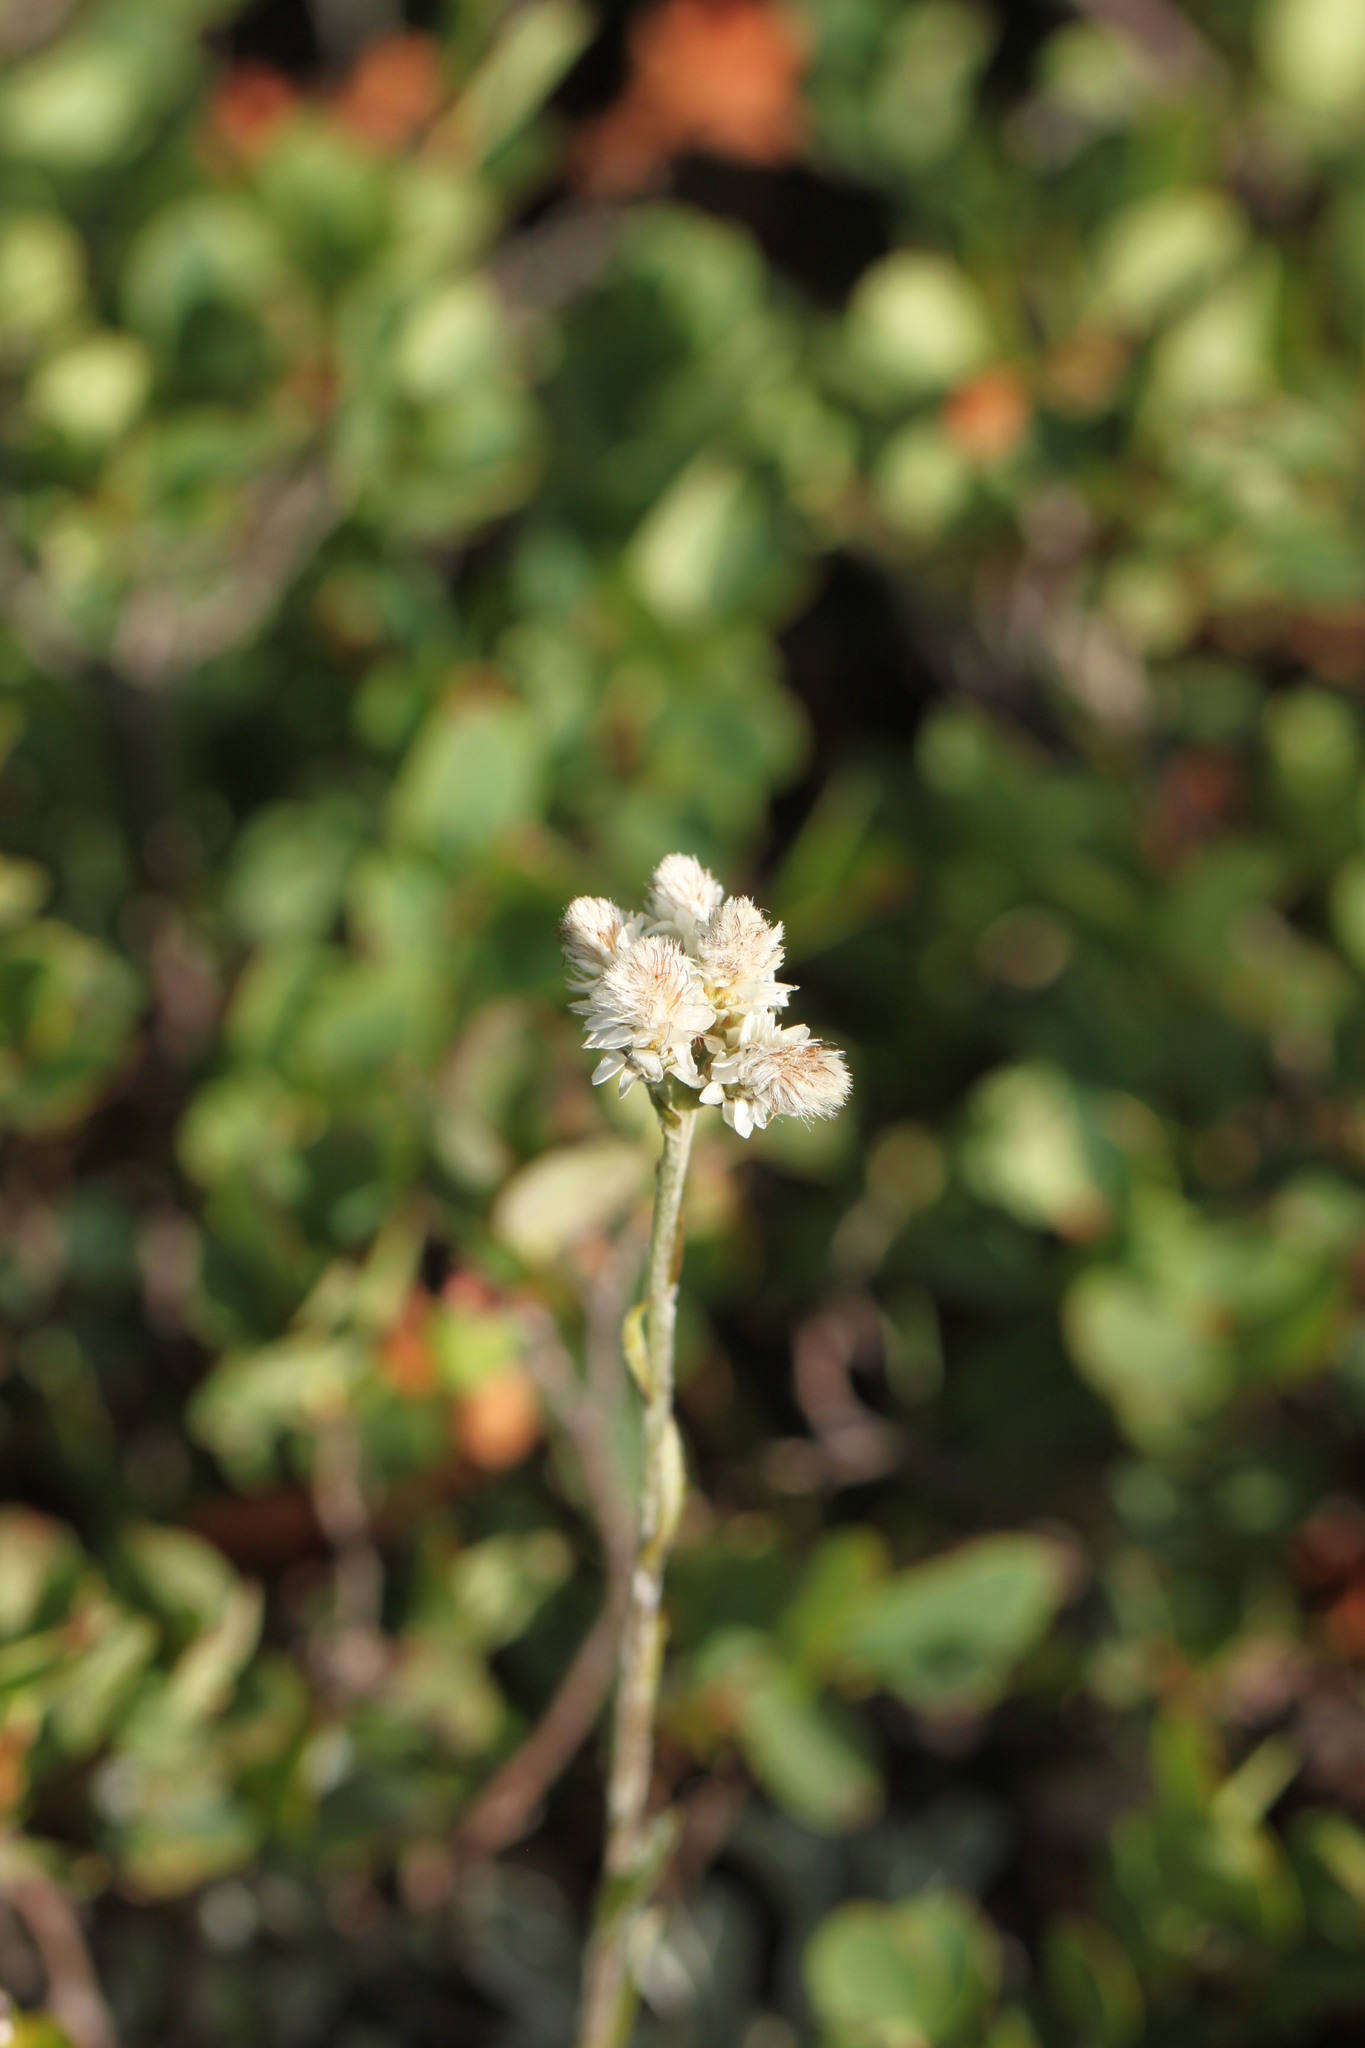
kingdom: Plantae
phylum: Tracheophyta
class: Magnoliopsida
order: Asterales
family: Asteraceae
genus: Antennaria
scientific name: Antennaria dioica
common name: Mountain everlasting
